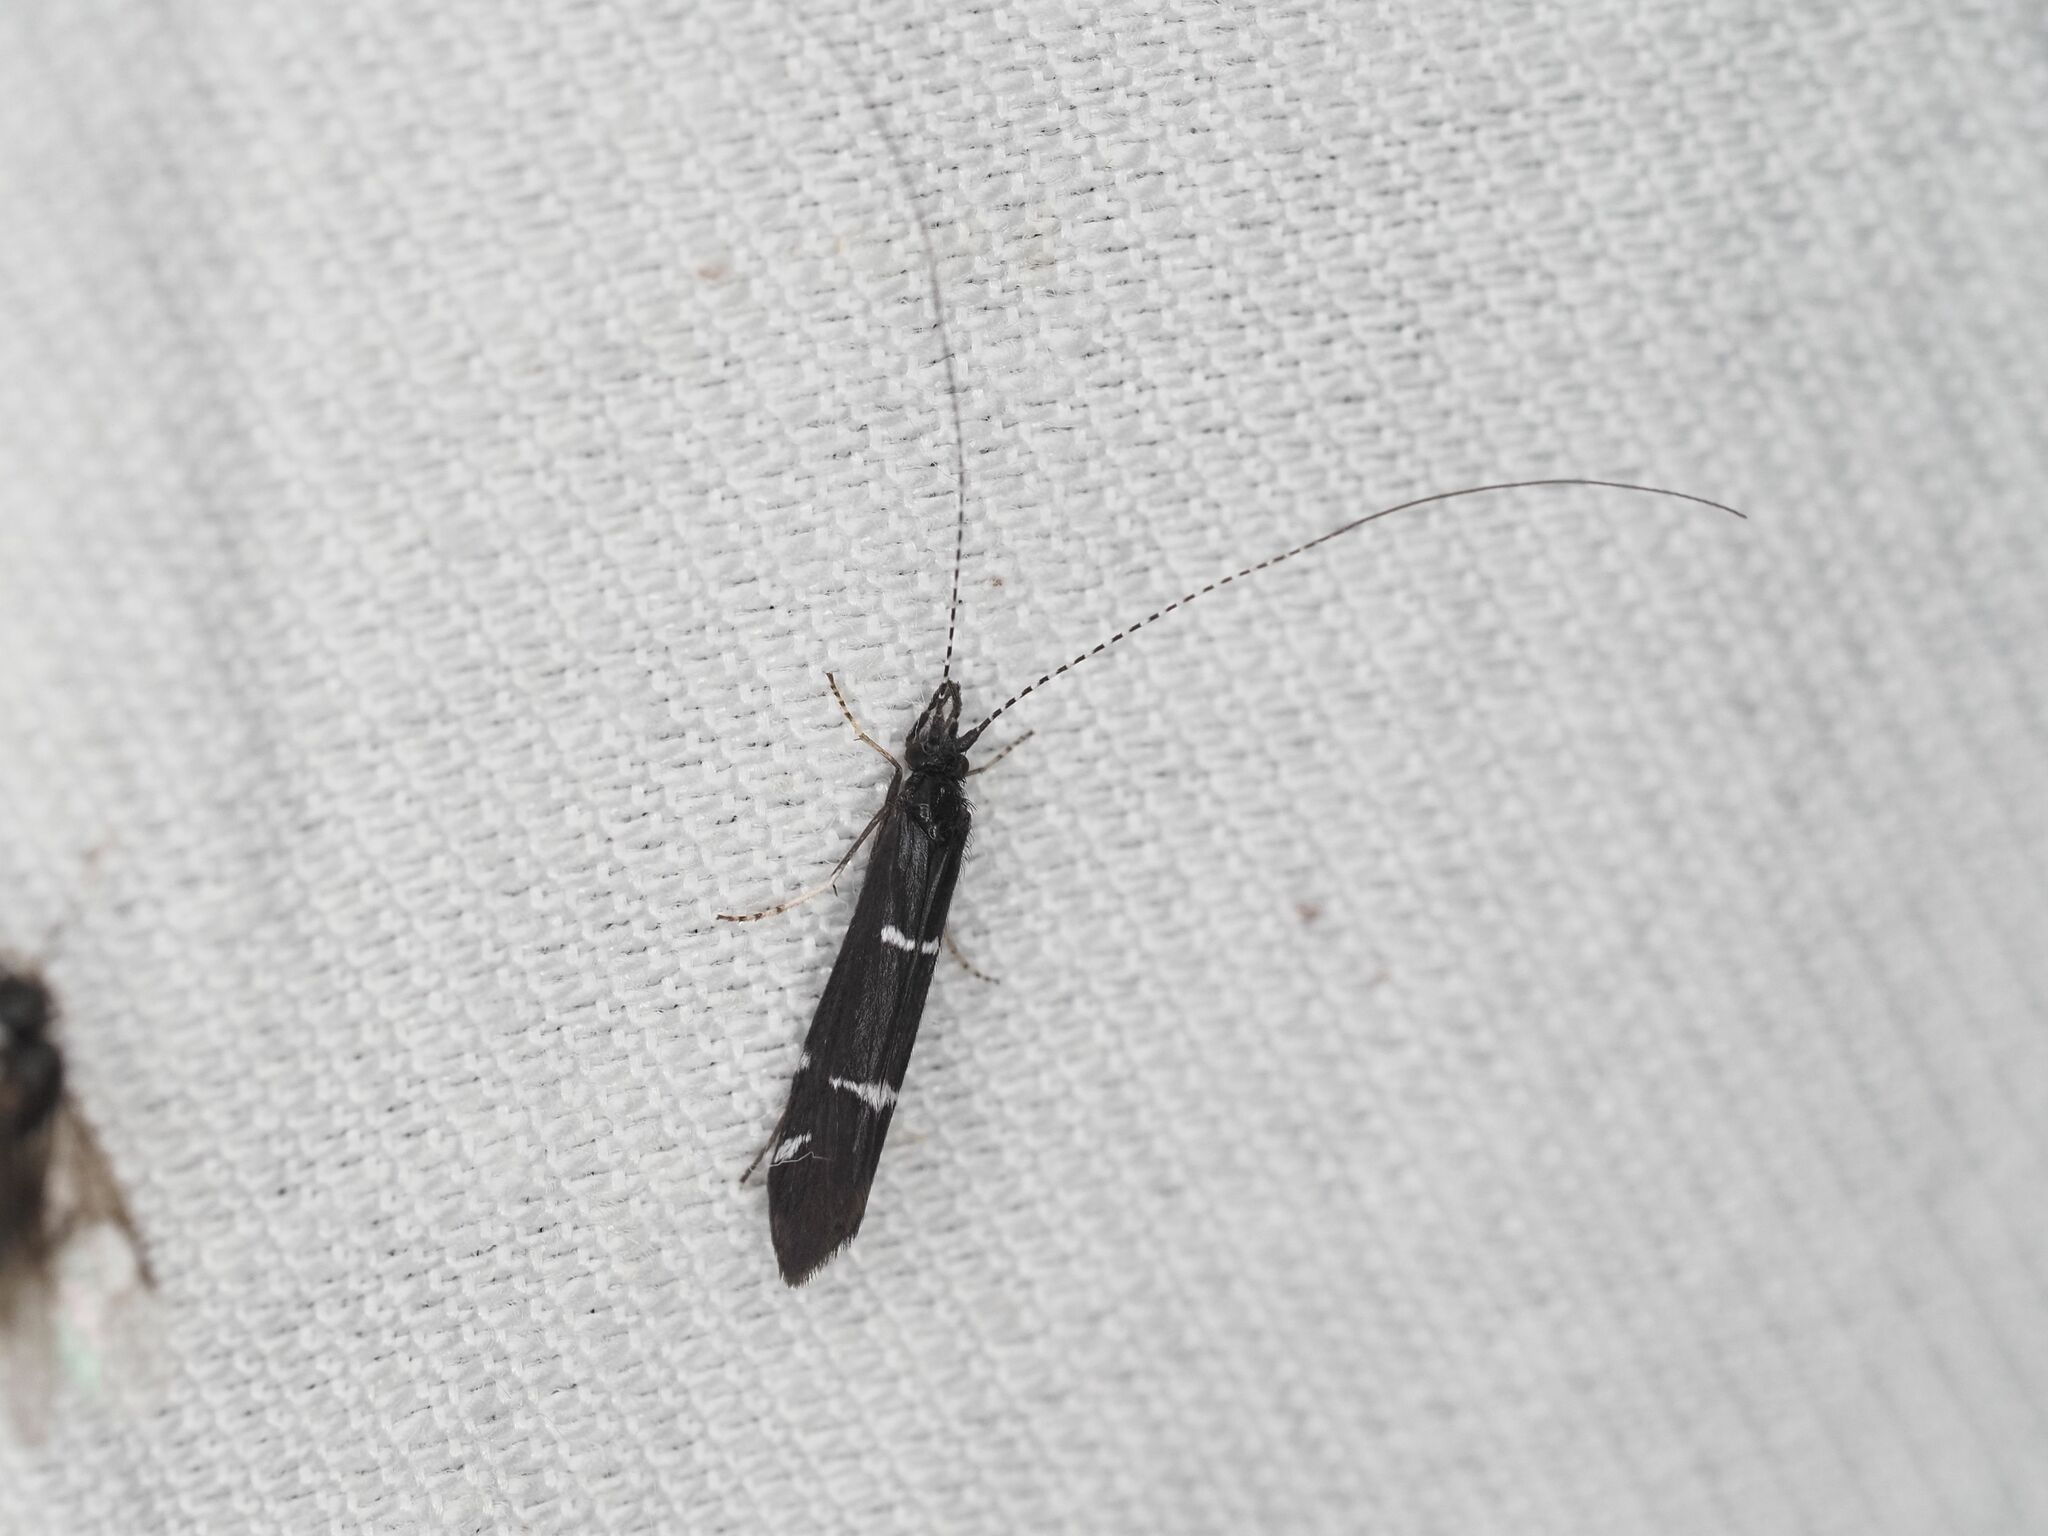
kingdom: Animalia
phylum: Arthropoda
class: Insecta
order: Trichoptera
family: Leptoceridae
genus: Athripsodes
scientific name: Athripsodes bilineatus
